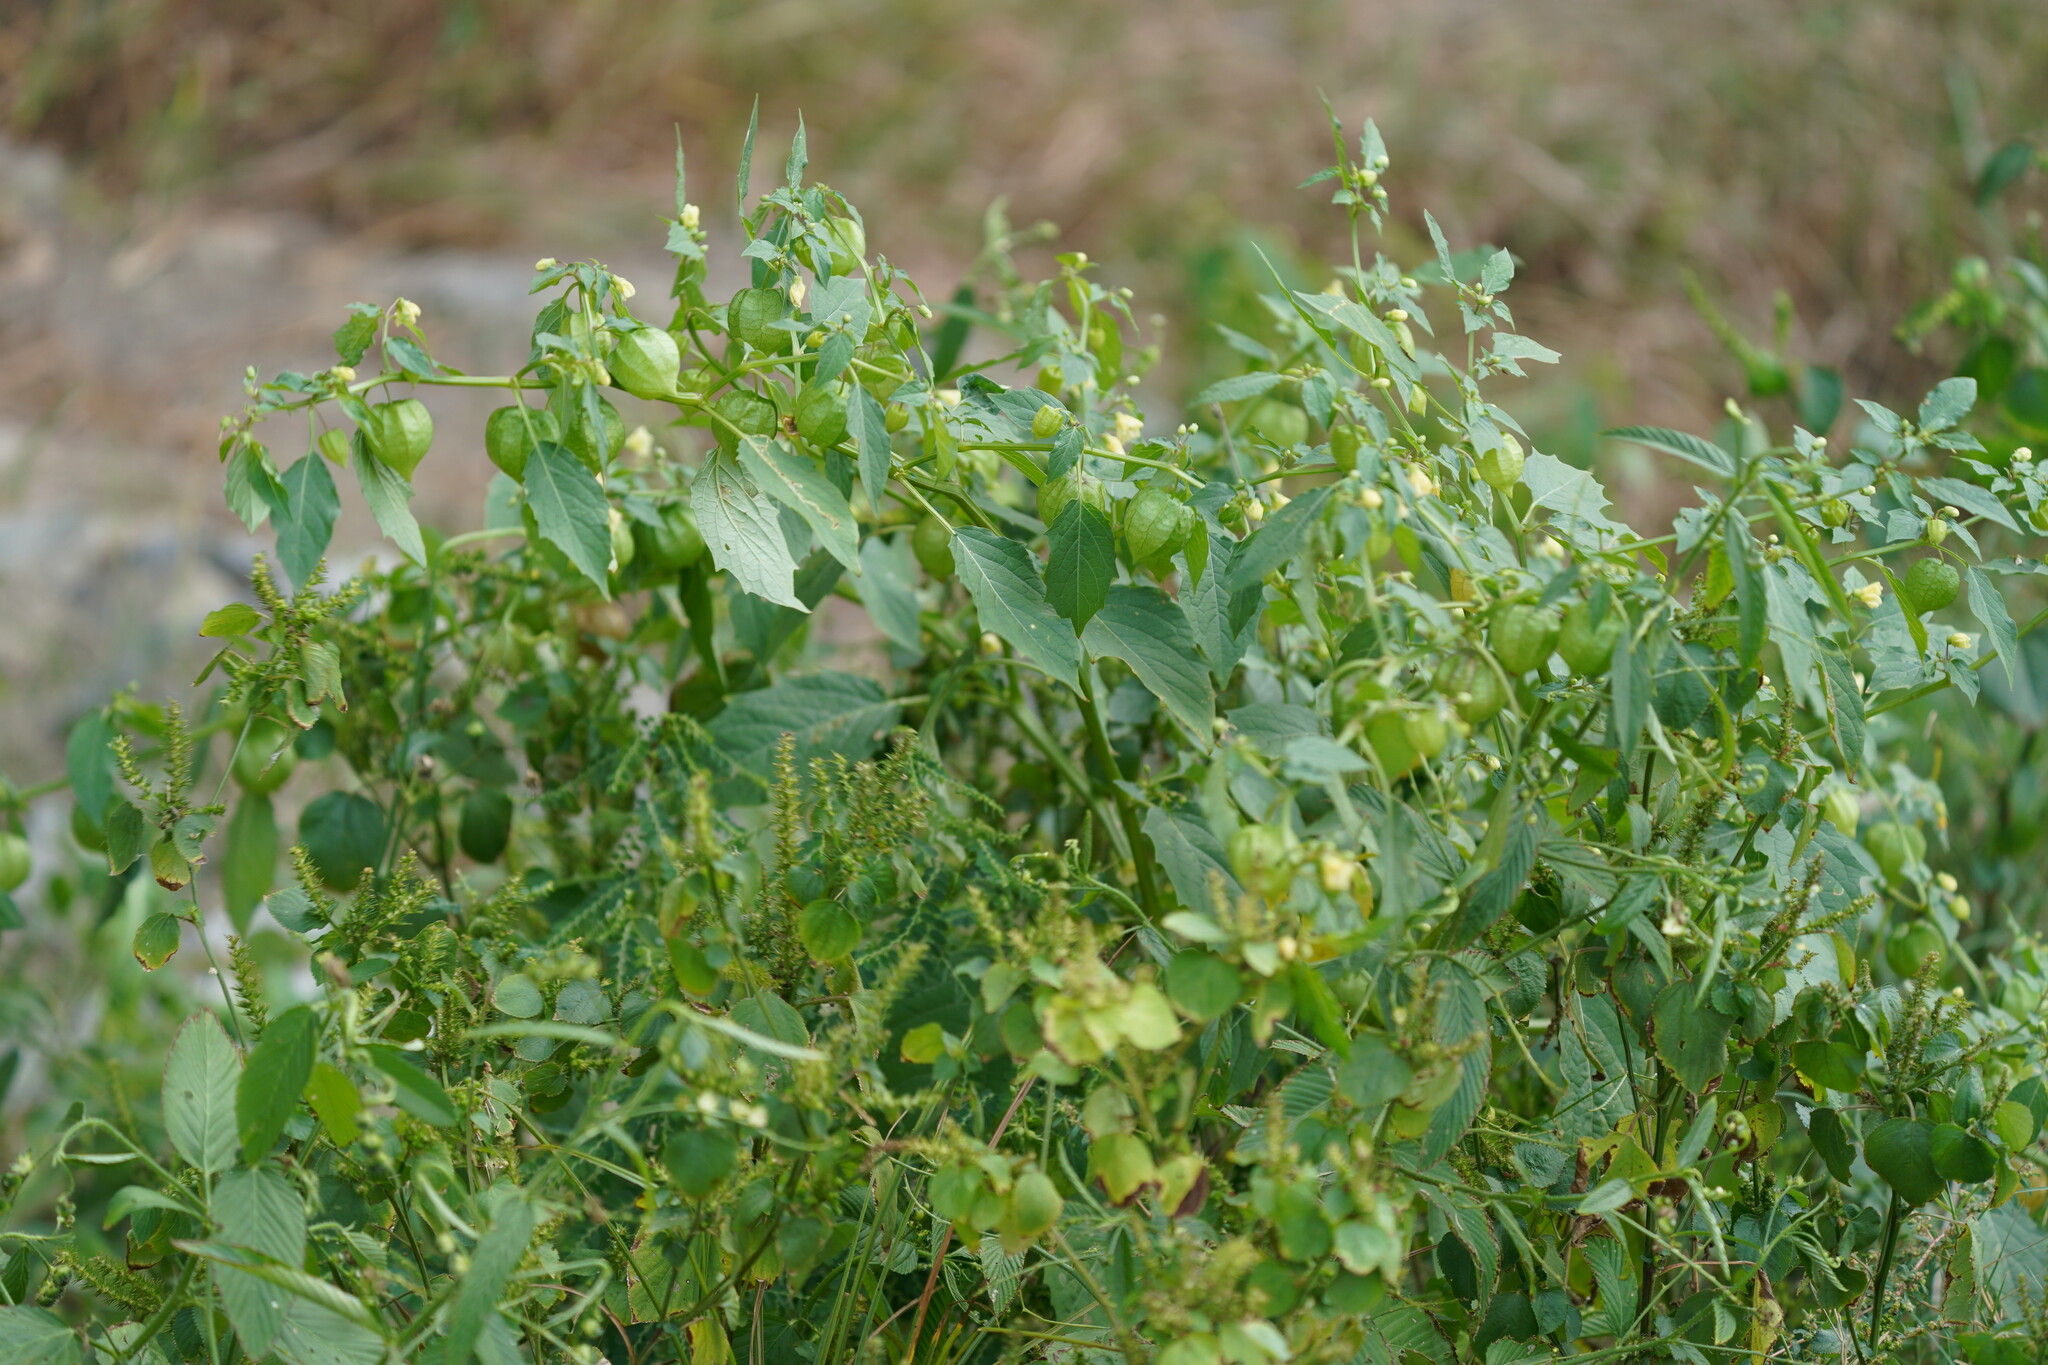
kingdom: Plantae
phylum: Tracheophyta
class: Magnoliopsida
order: Solanales
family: Solanaceae
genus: Physalis
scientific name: Physalis angulata
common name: Angular winter-cherry
